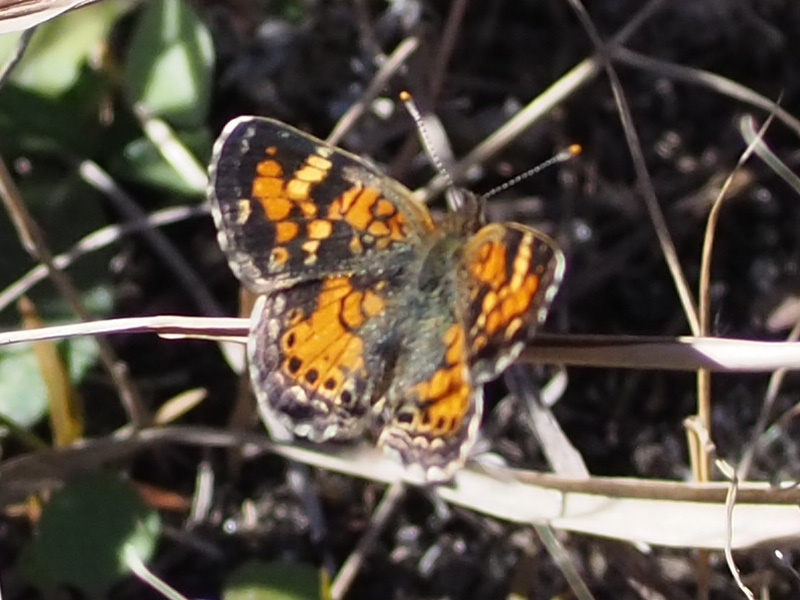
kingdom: Animalia
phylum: Arthropoda
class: Insecta
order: Lepidoptera
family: Nymphalidae
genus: Phyciodes
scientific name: Phyciodes phaon
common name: Phaon crescent
